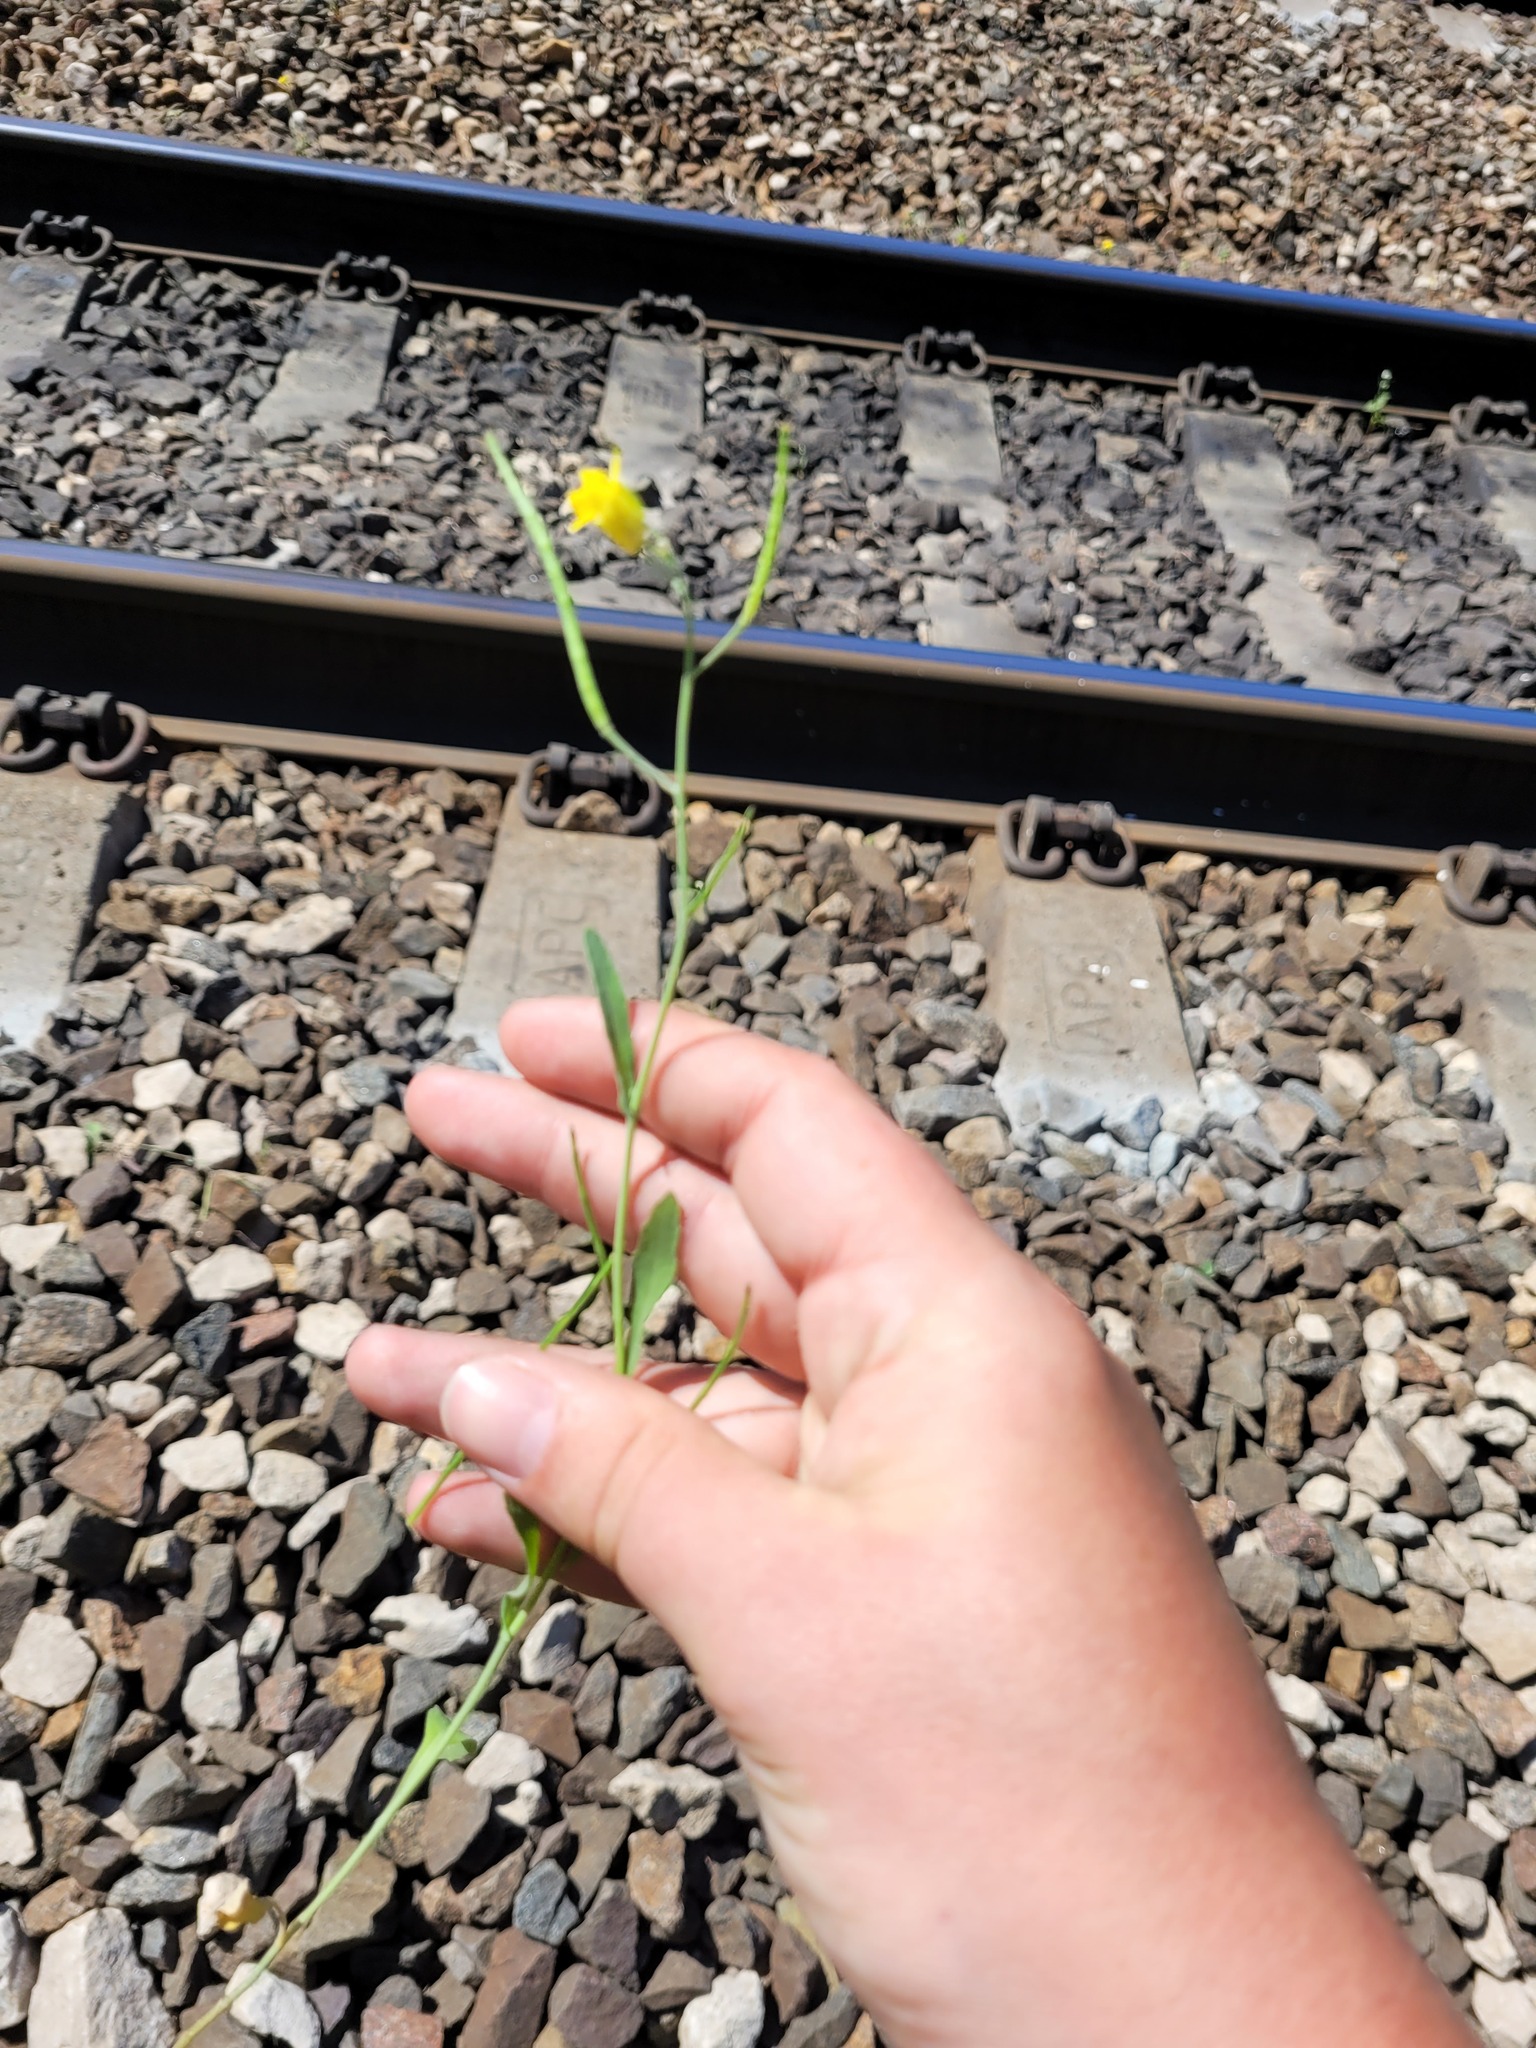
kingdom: Plantae
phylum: Tracheophyta
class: Magnoliopsida
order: Brassicales
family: Brassicaceae
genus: Brassica
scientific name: Brassica napus
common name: Rape
